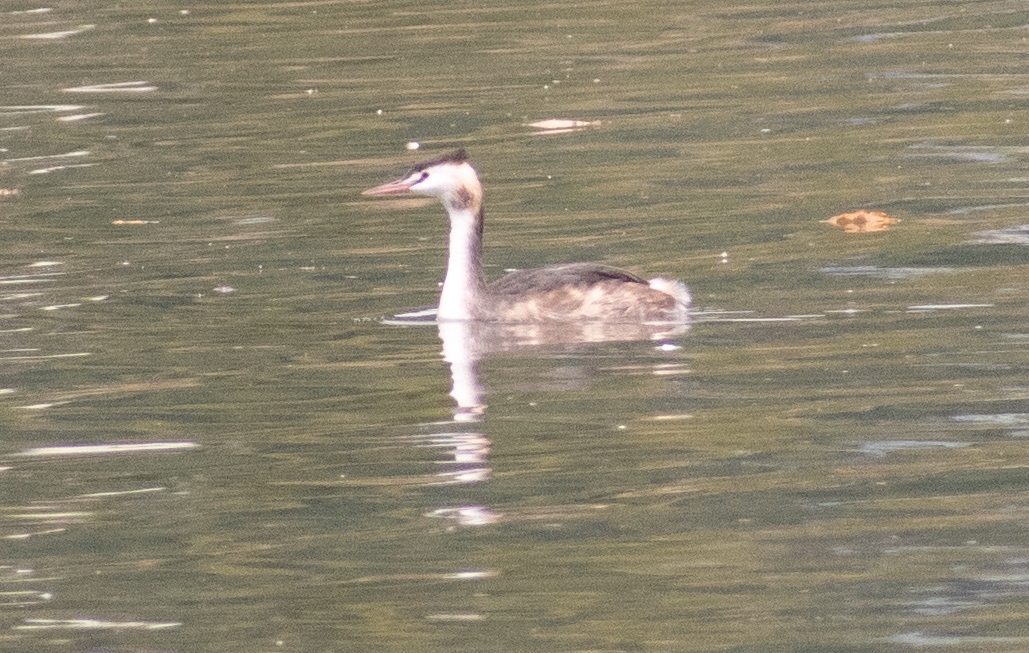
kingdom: Animalia
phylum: Chordata
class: Aves
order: Podicipediformes
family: Podicipedidae
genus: Podiceps
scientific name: Podiceps cristatus
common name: Great crested grebe
